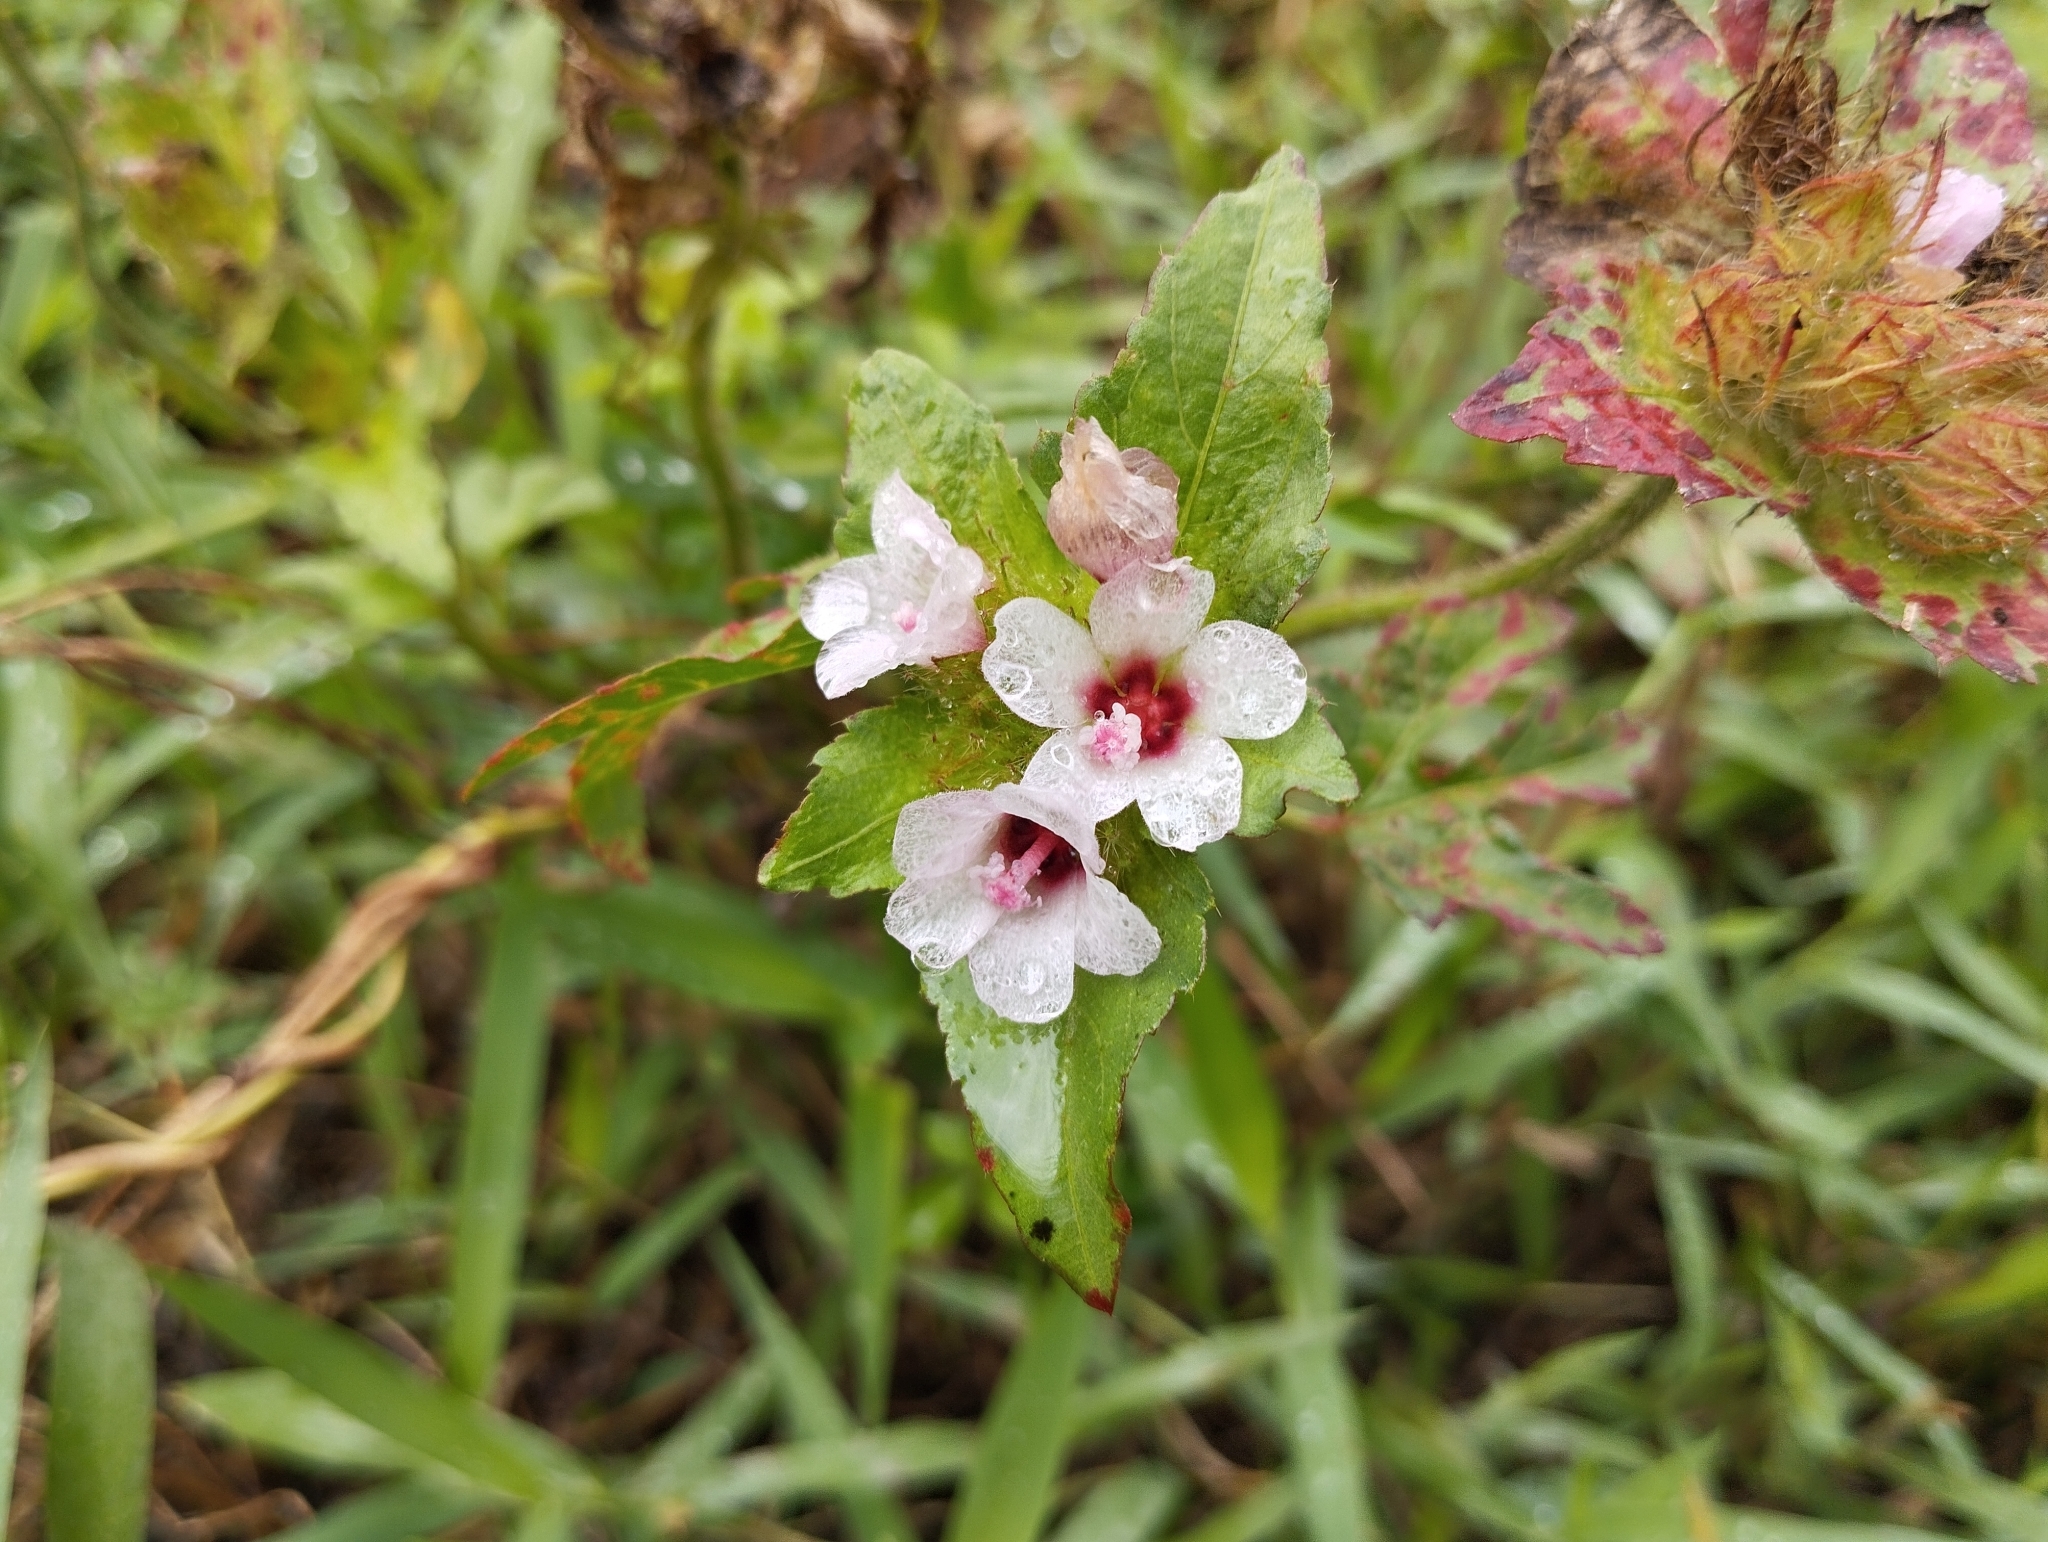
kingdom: Plantae
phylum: Tracheophyta
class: Magnoliopsida
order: Malvales
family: Malvaceae
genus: Urena
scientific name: Urena lobata
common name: Caesarweed
